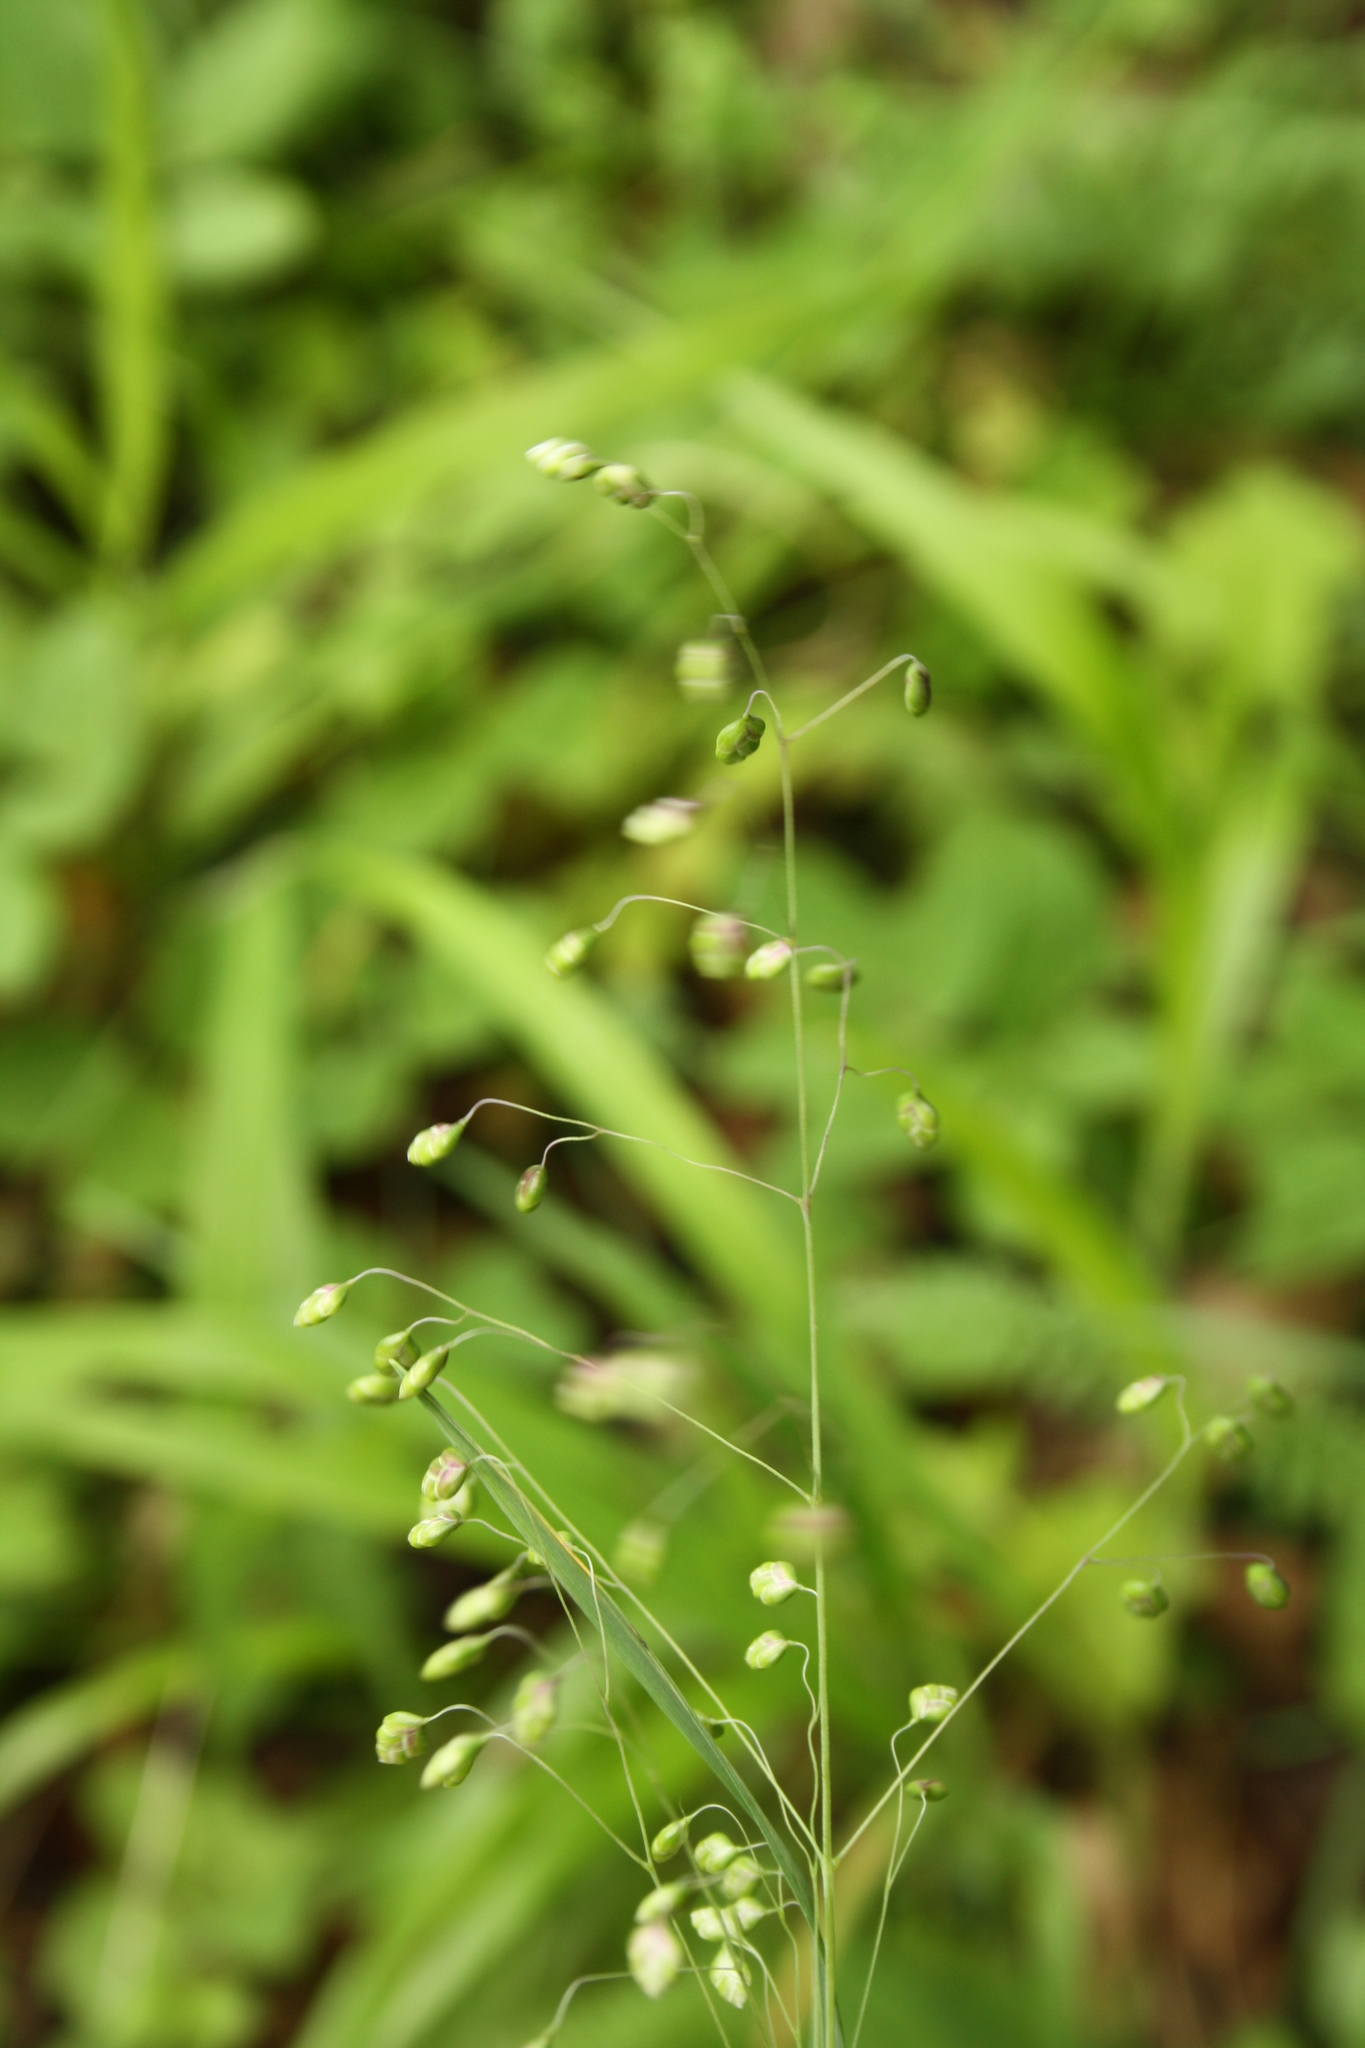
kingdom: Plantae
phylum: Tracheophyta
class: Liliopsida
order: Poales
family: Poaceae
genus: Briza
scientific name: Briza media
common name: Quaking grass
